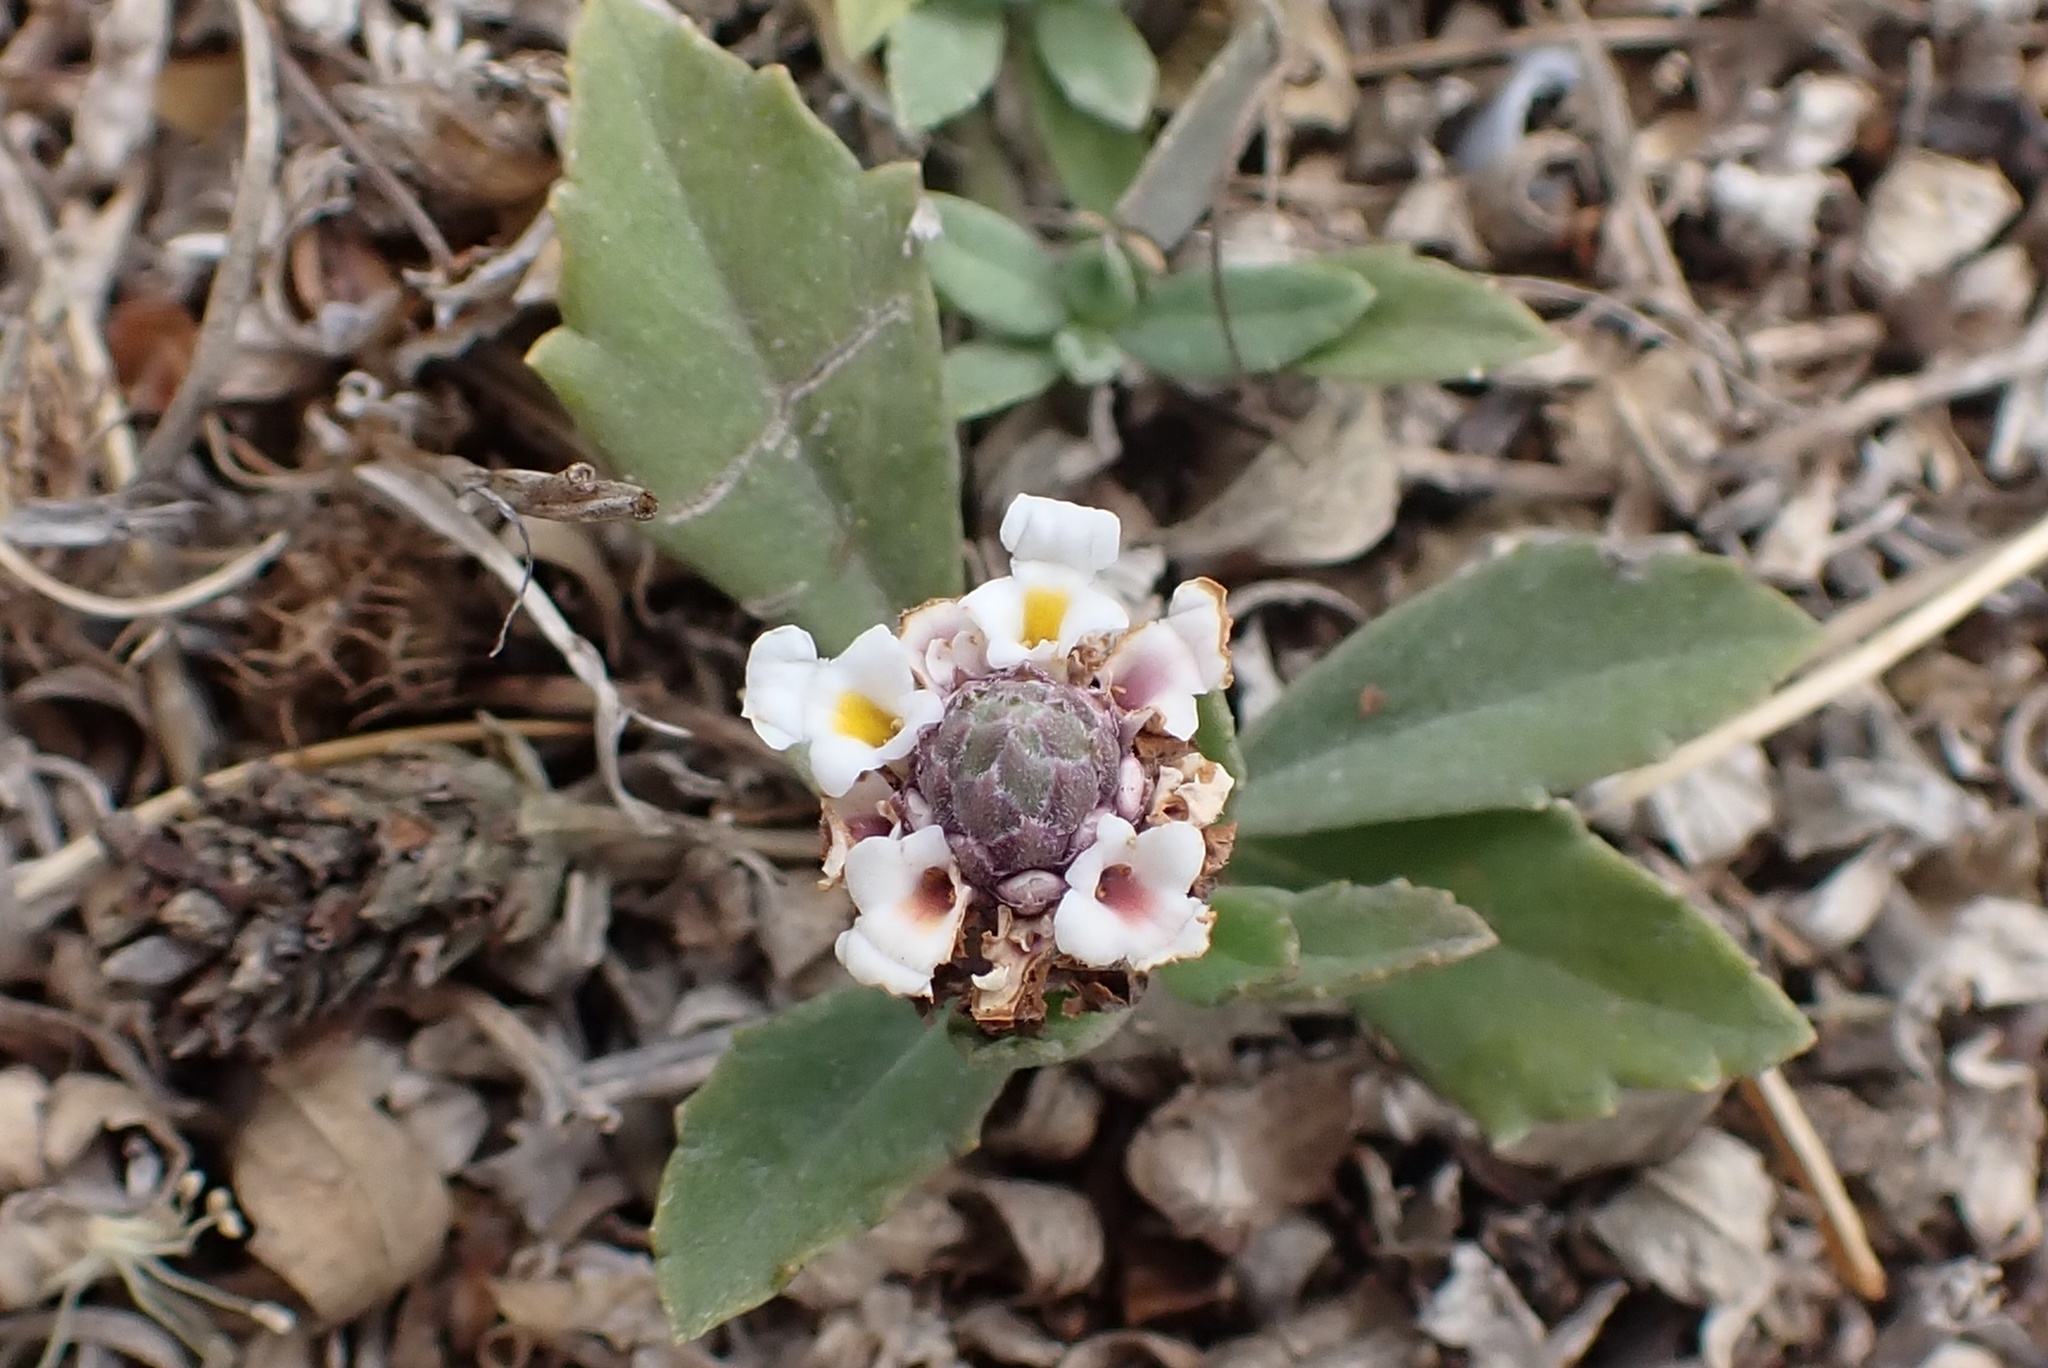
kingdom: Plantae
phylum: Tracheophyta
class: Magnoliopsida
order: Lamiales
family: Verbenaceae
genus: Phyla
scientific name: Phyla nodiflora
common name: Frogfruit
